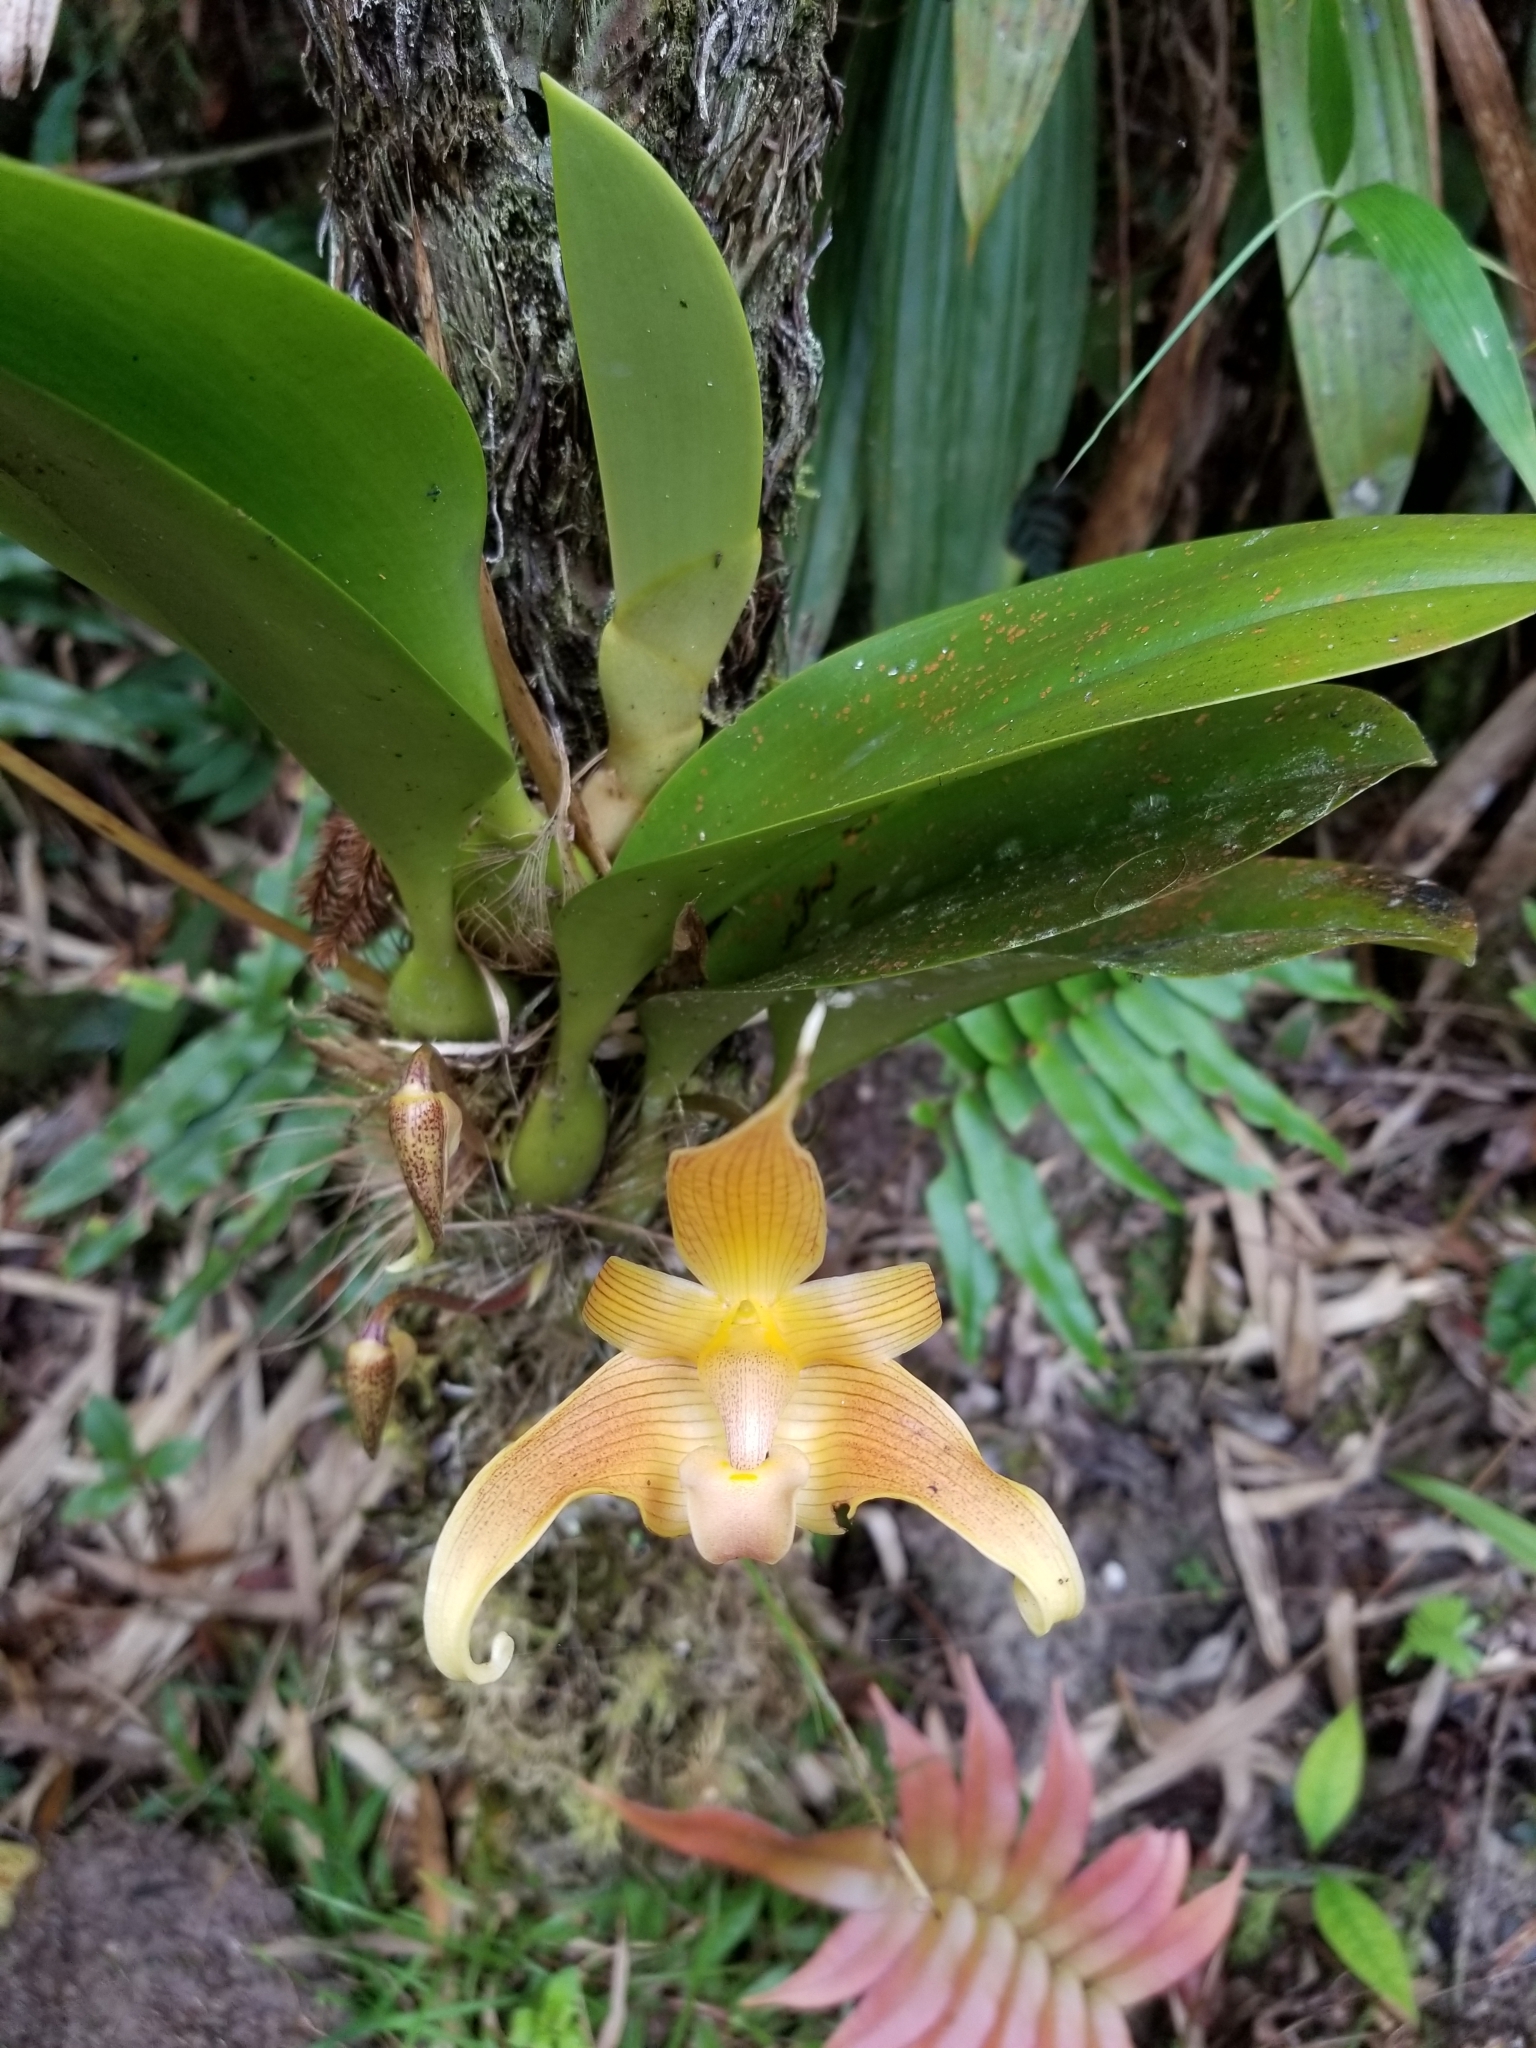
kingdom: Plantae
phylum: Tracheophyta
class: Liliopsida
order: Asparagales
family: Orchidaceae
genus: Bulbophyllum
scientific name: Bulbophyllum lobbii
